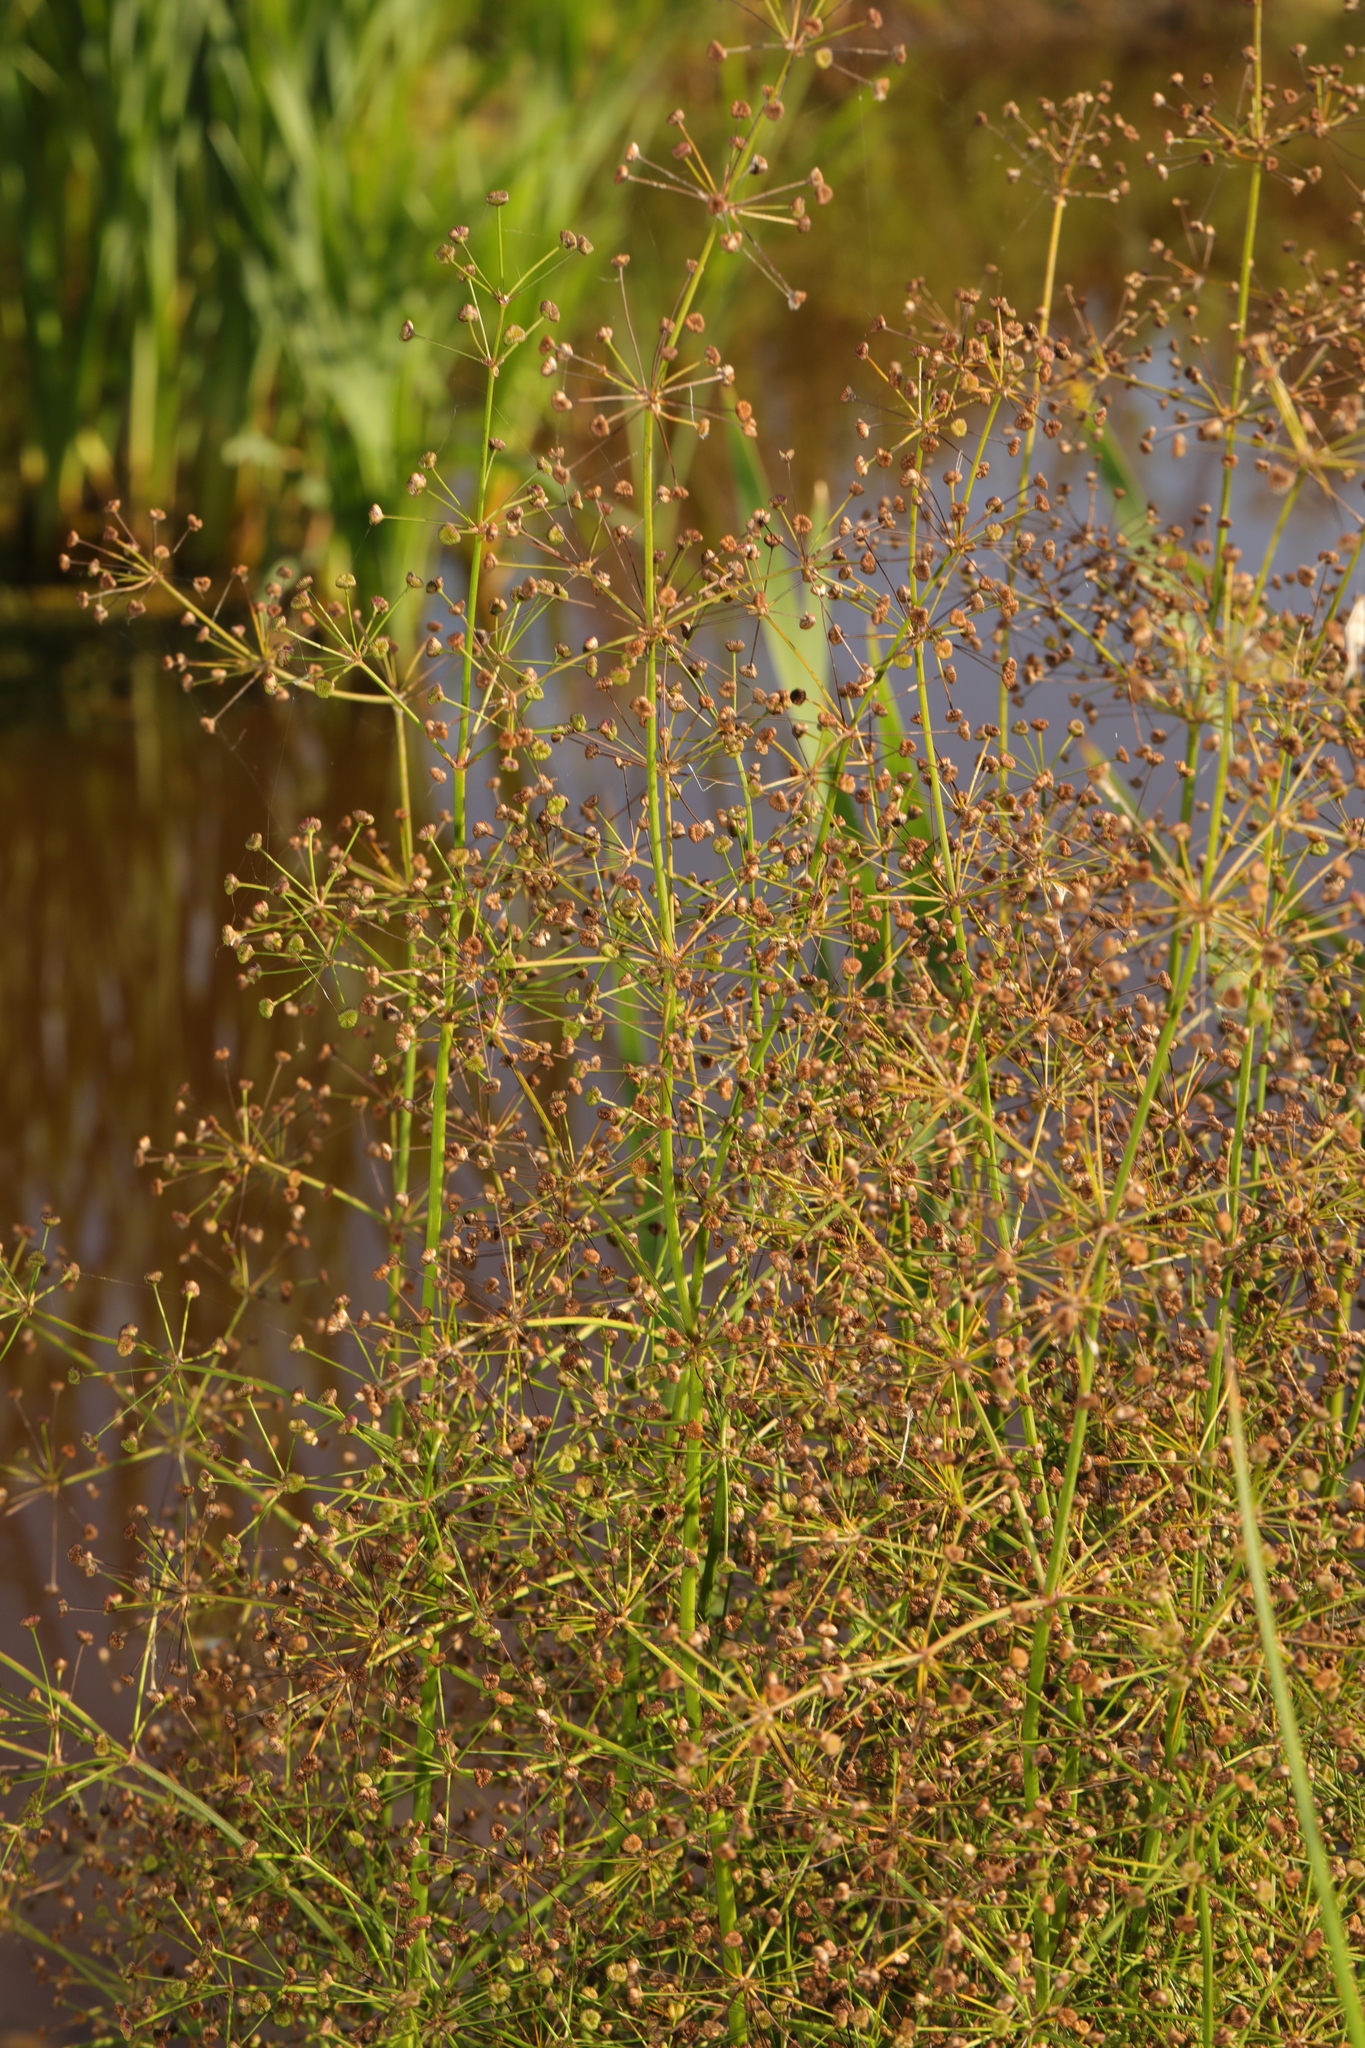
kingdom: Plantae
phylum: Tracheophyta
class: Liliopsida
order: Alismatales
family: Alismataceae
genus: Alisma
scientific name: Alisma plantago-aquatica
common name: Water-plantain
